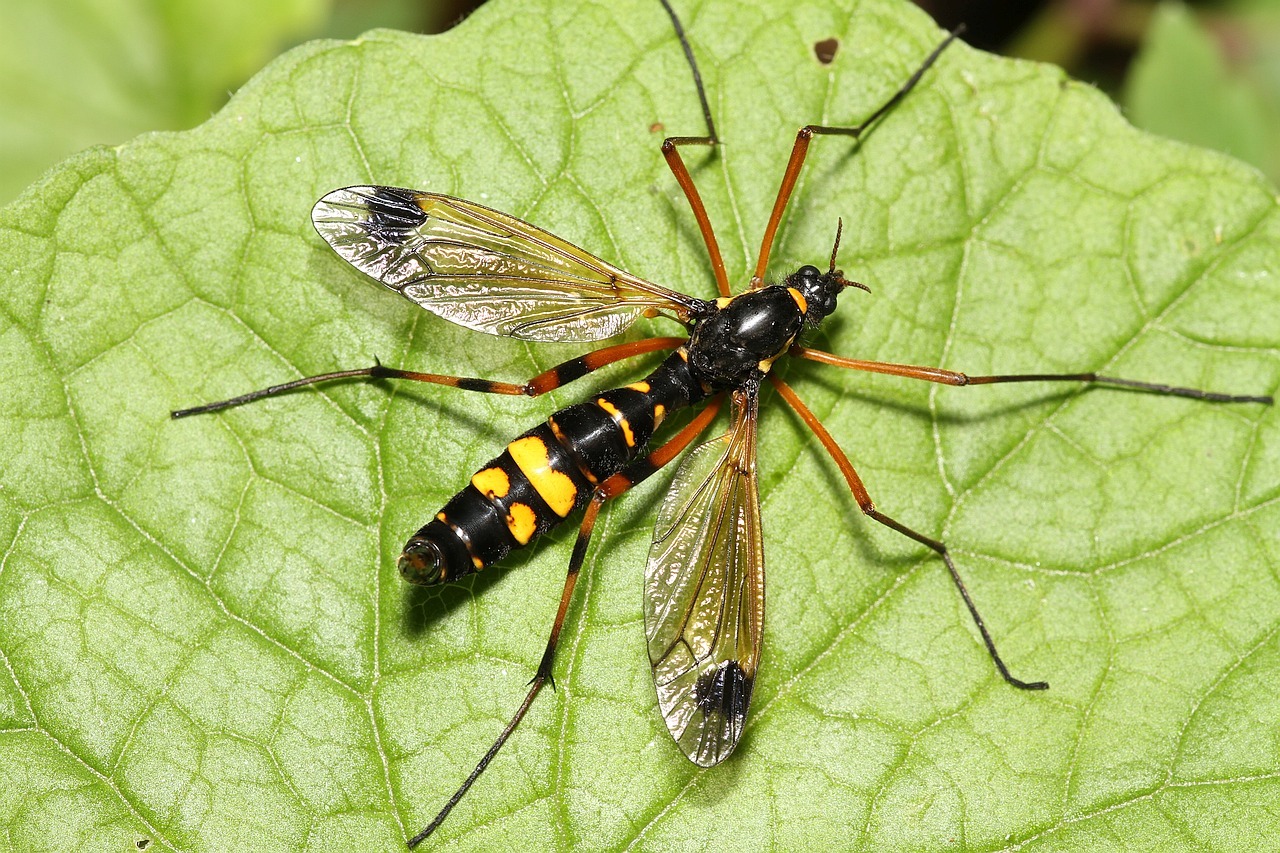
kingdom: Animalia
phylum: Arthropoda
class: Insecta
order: Diptera
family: Tipulidae
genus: Ctenophora
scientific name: Ctenophora festiva
